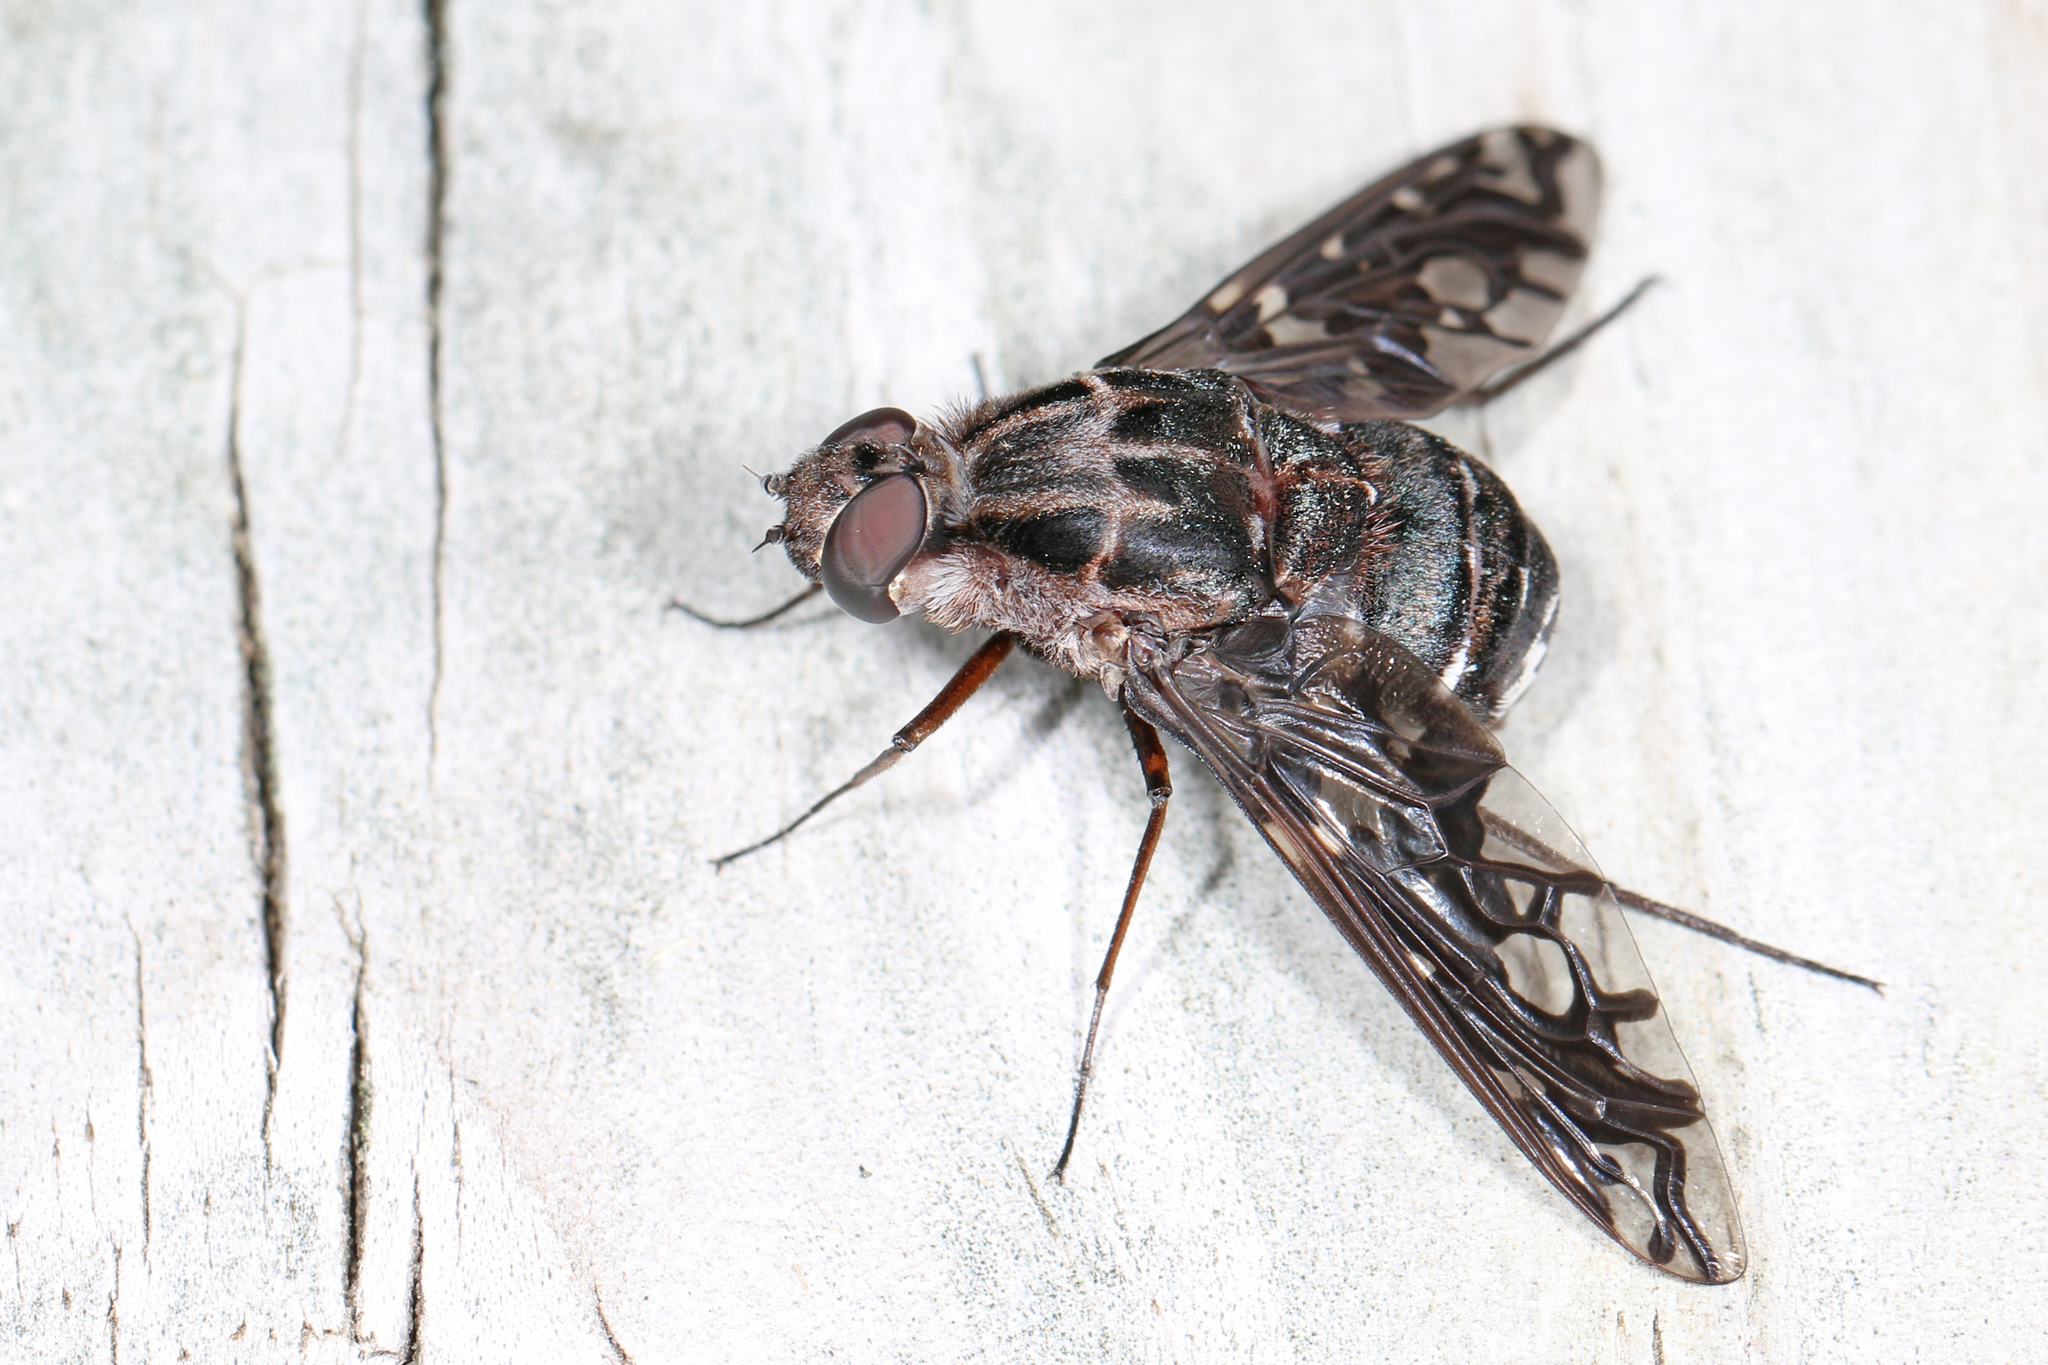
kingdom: Animalia
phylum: Arthropoda
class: Insecta
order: Diptera
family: Bombyliidae
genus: Xenox
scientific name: Xenox tigrinus
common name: Tiger bee fly
